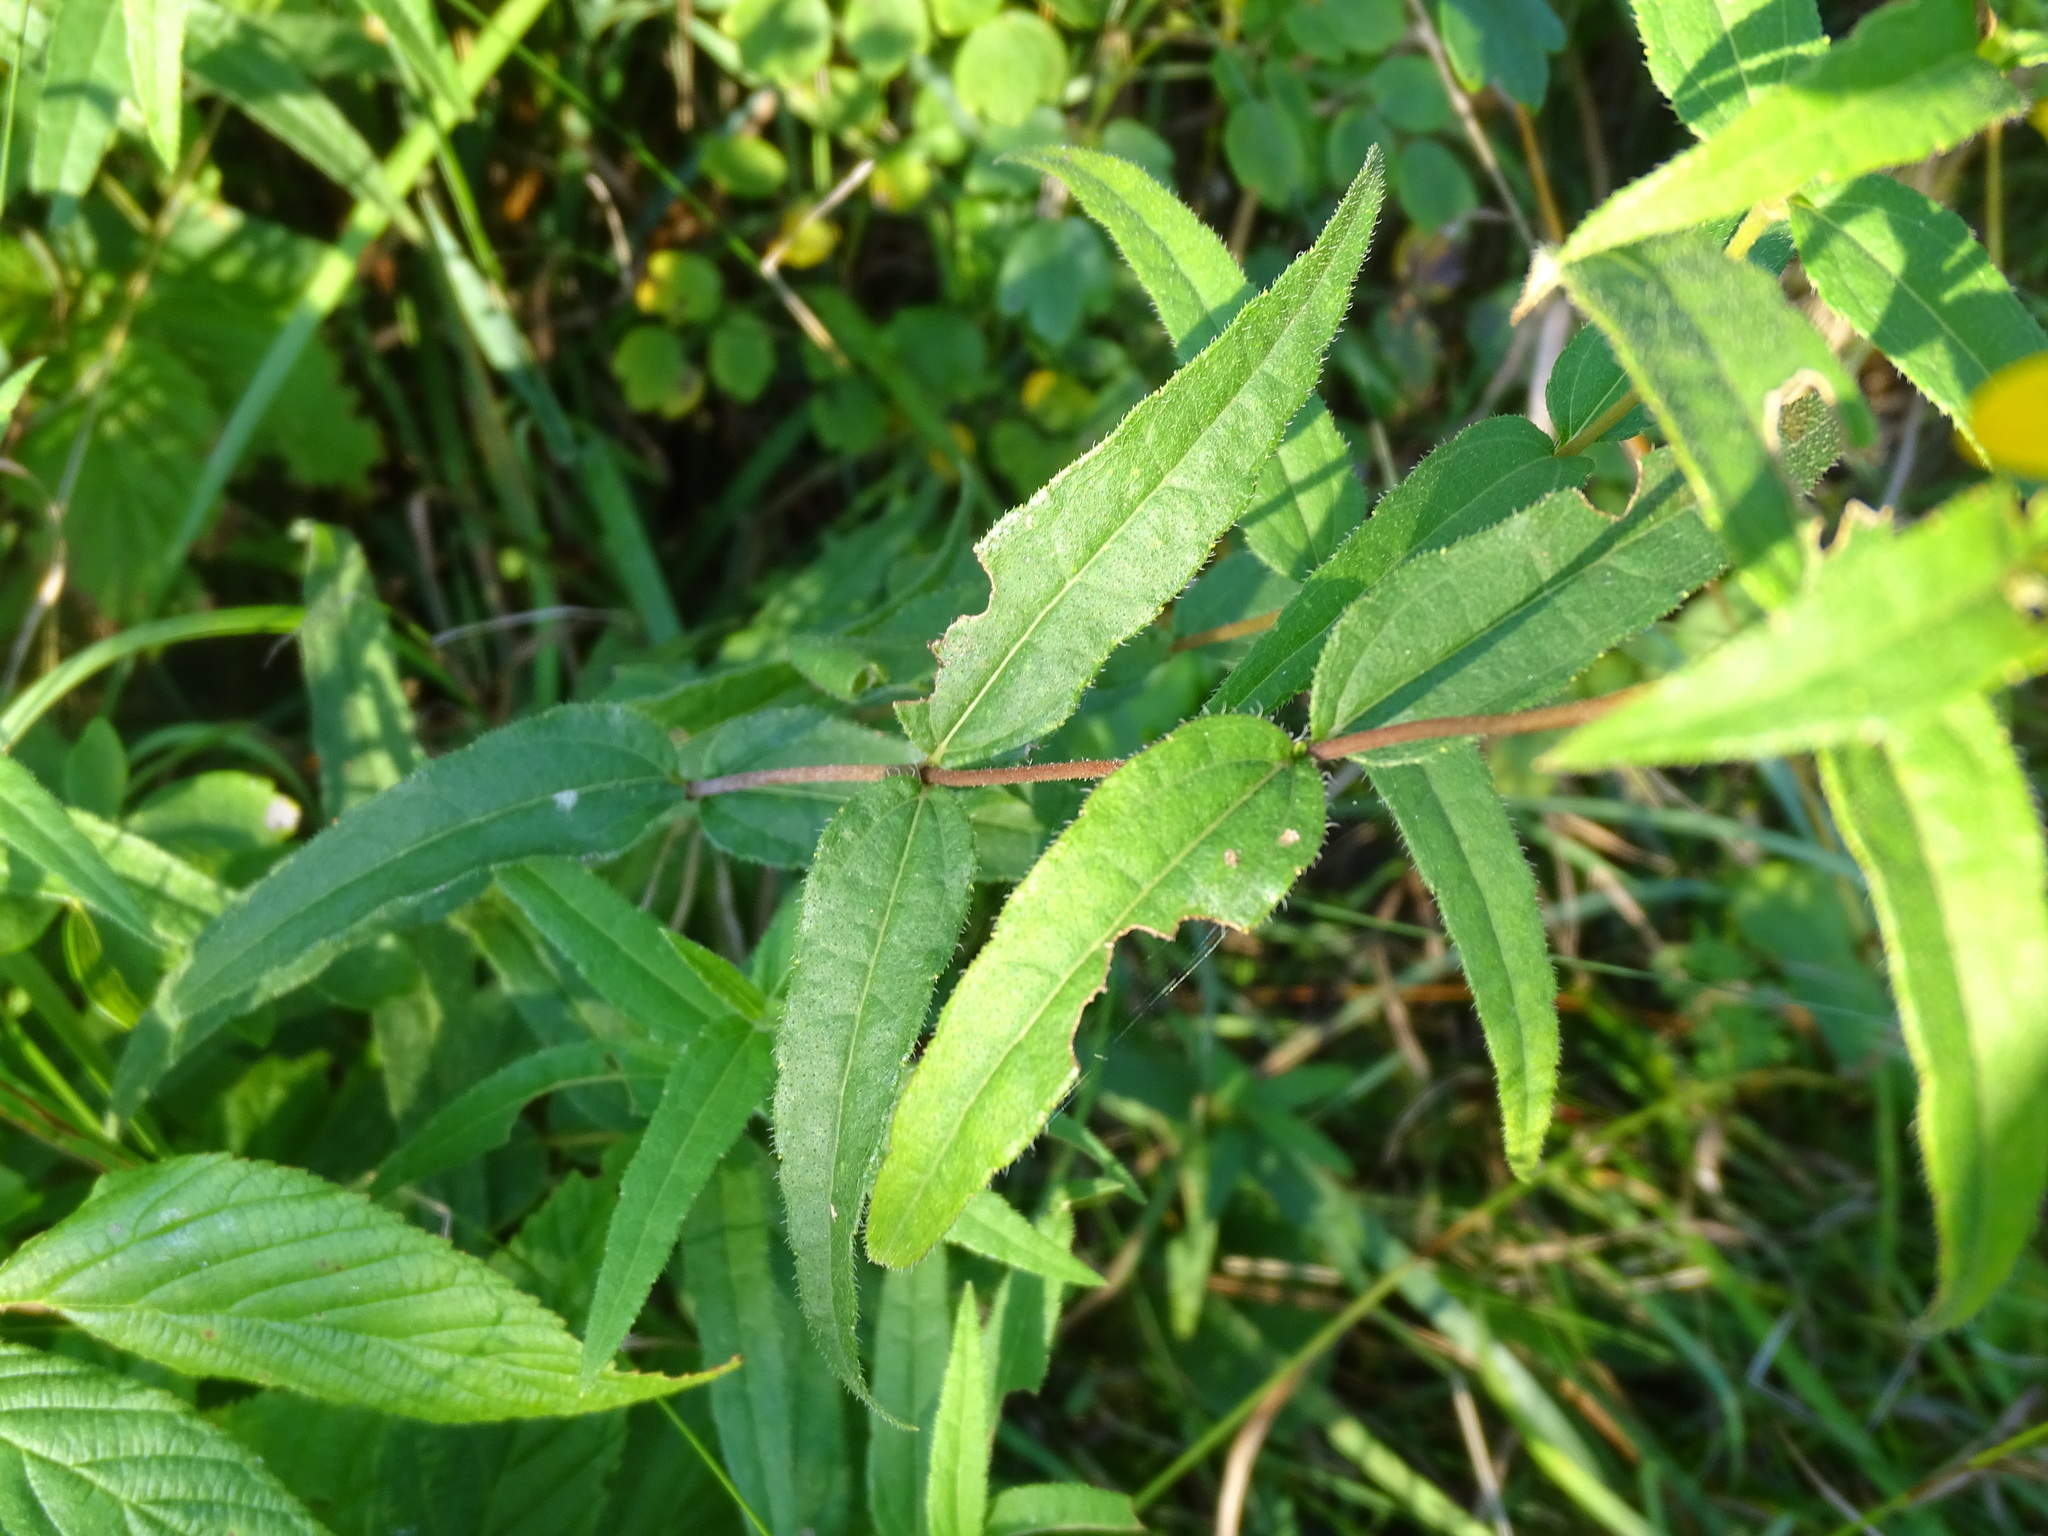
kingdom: Plantae
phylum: Tracheophyta
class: Magnoliopsida
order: Asterales
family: Asteraceae
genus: Helianthus
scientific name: Helianthus divaricatus
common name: Divergent sunflower
